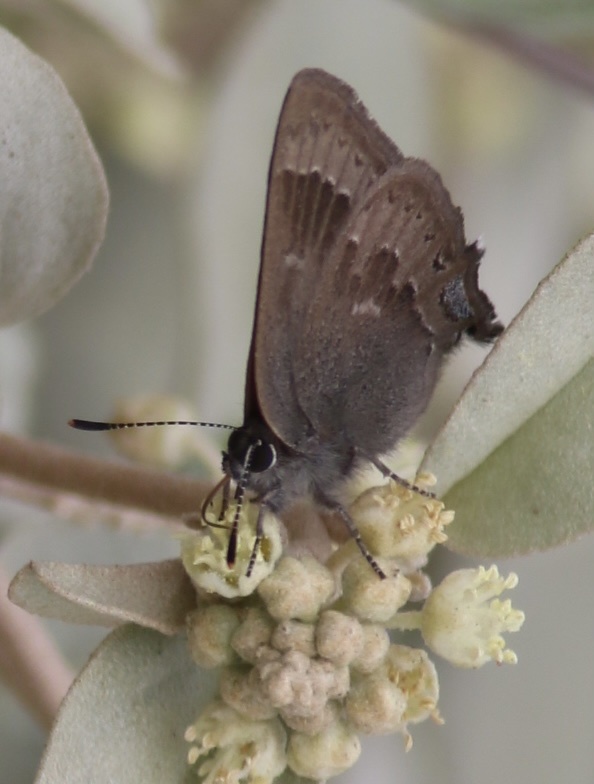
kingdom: Animalia
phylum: Arthropoda
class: Insecta
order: Lepidoptera
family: Lycaenidae
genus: Strymon
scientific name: Strymon saepium
